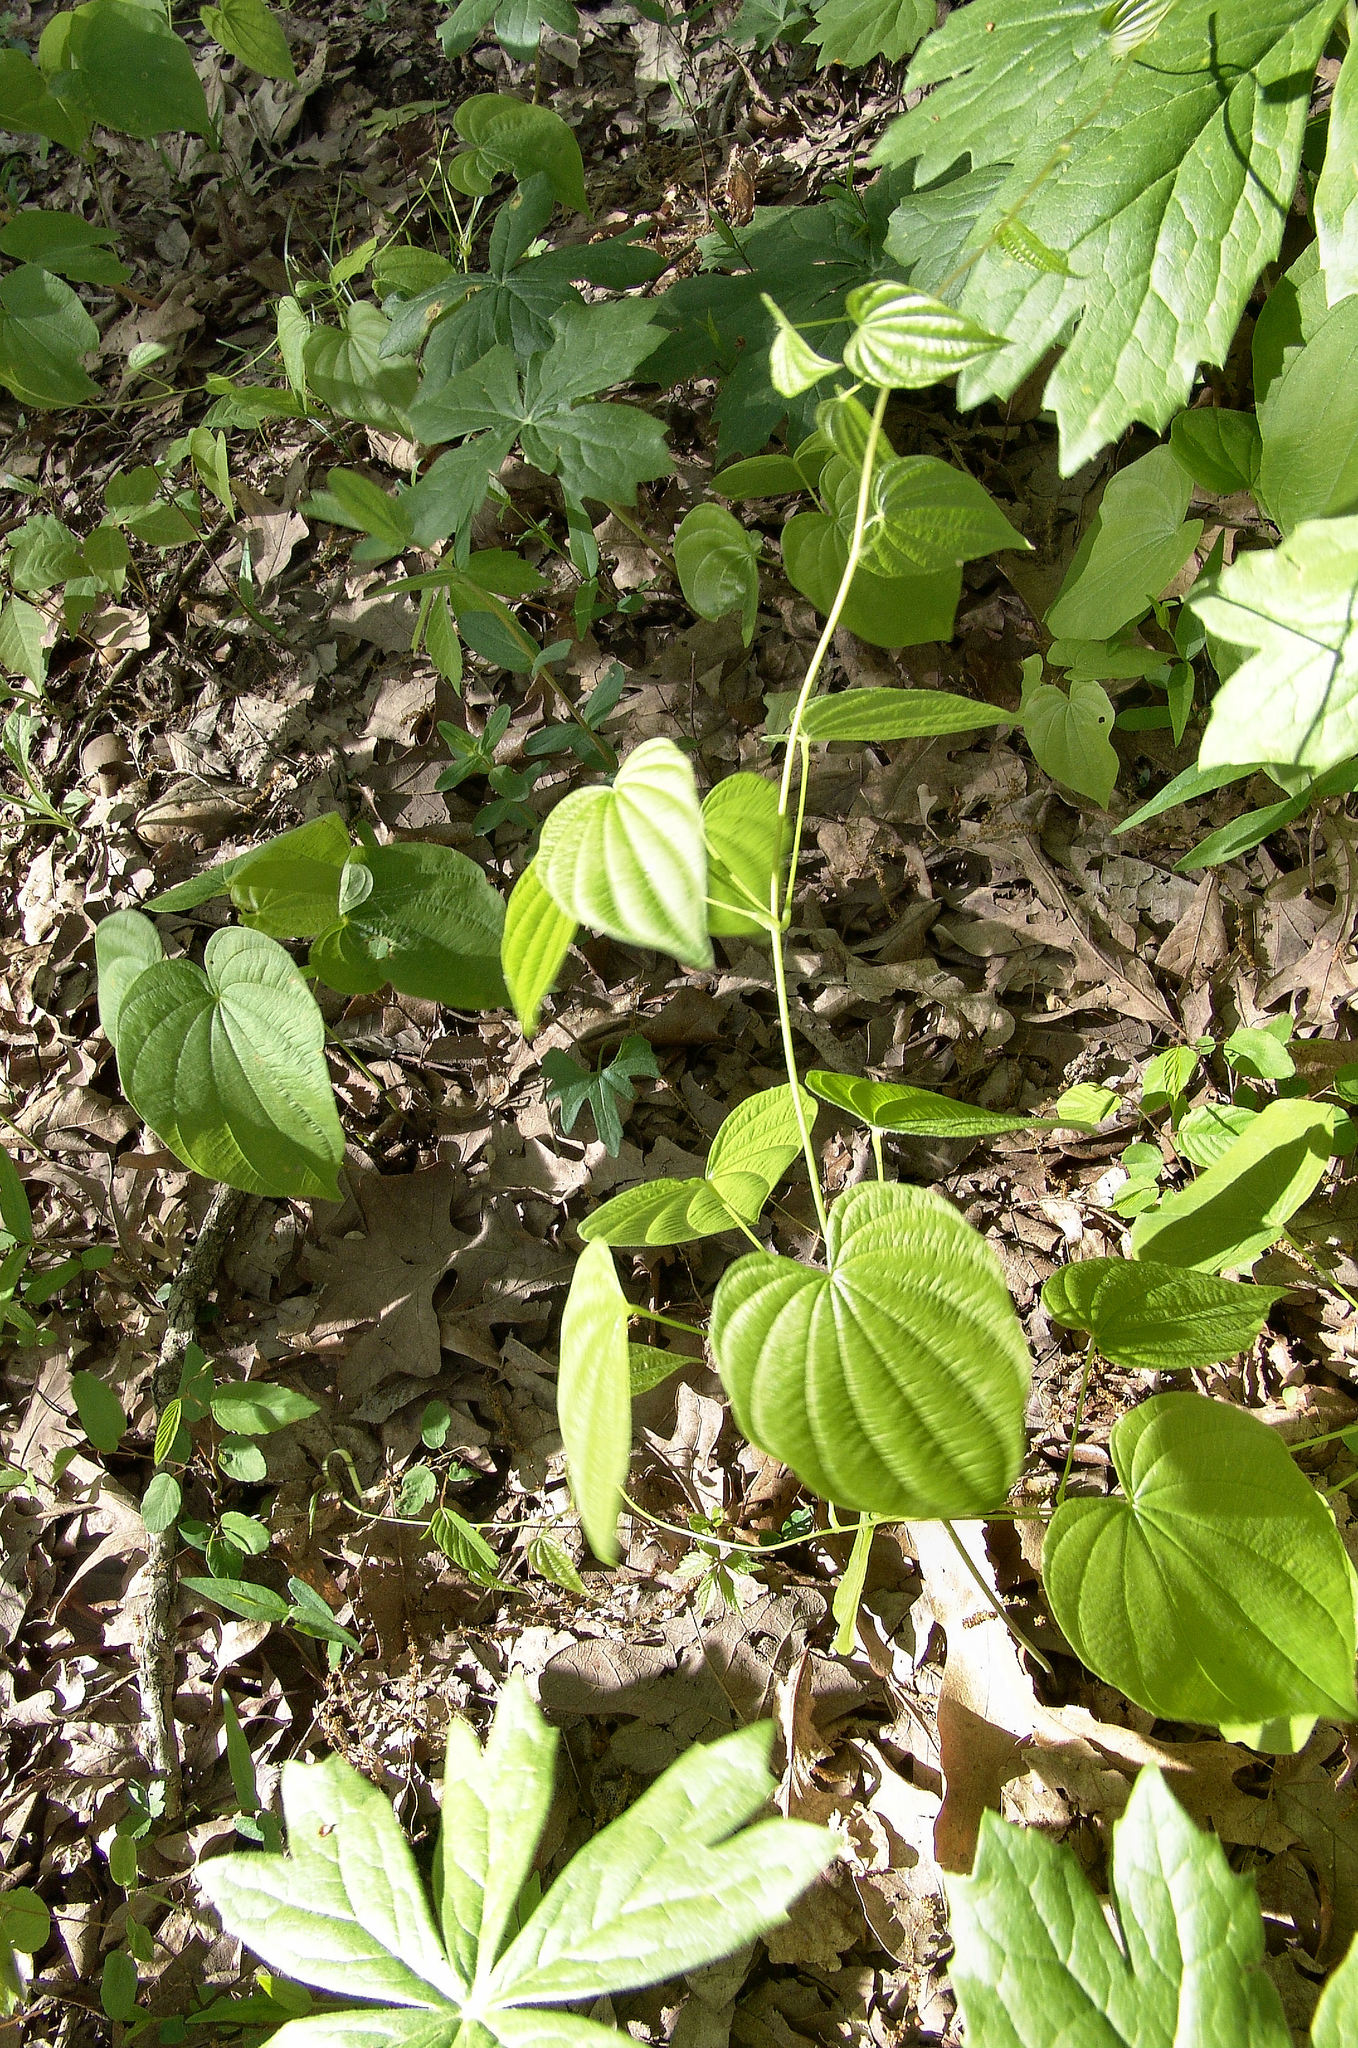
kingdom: Plantae
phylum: Tracheophyta
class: Liliopsida
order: Dioscoreales
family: Dioscoreaceae
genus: Dioscorea
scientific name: Dioscorea villosa
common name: Wild yam
